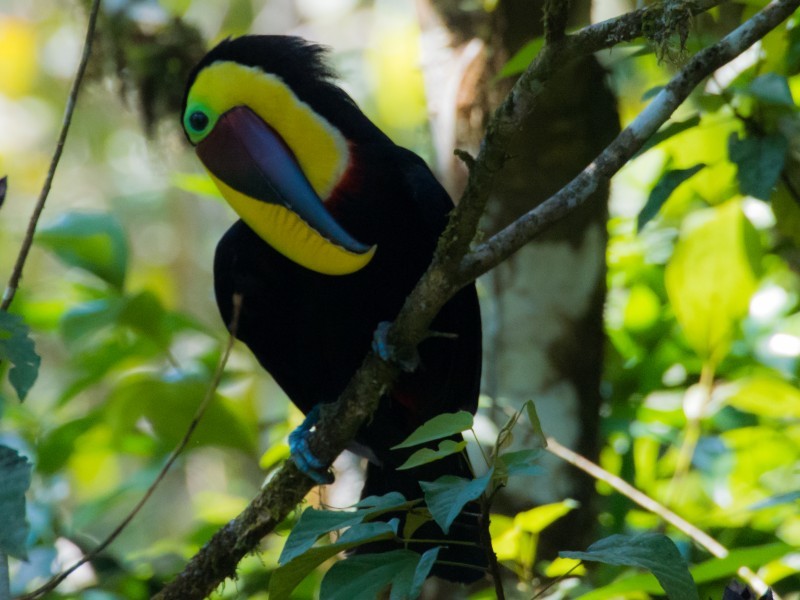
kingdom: Animalia
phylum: Chordata
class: Aves
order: Piciformes
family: Ramphastidae
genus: Ramphastos
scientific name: Ramphastos ambiguus
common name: Yellow-throated toucan
